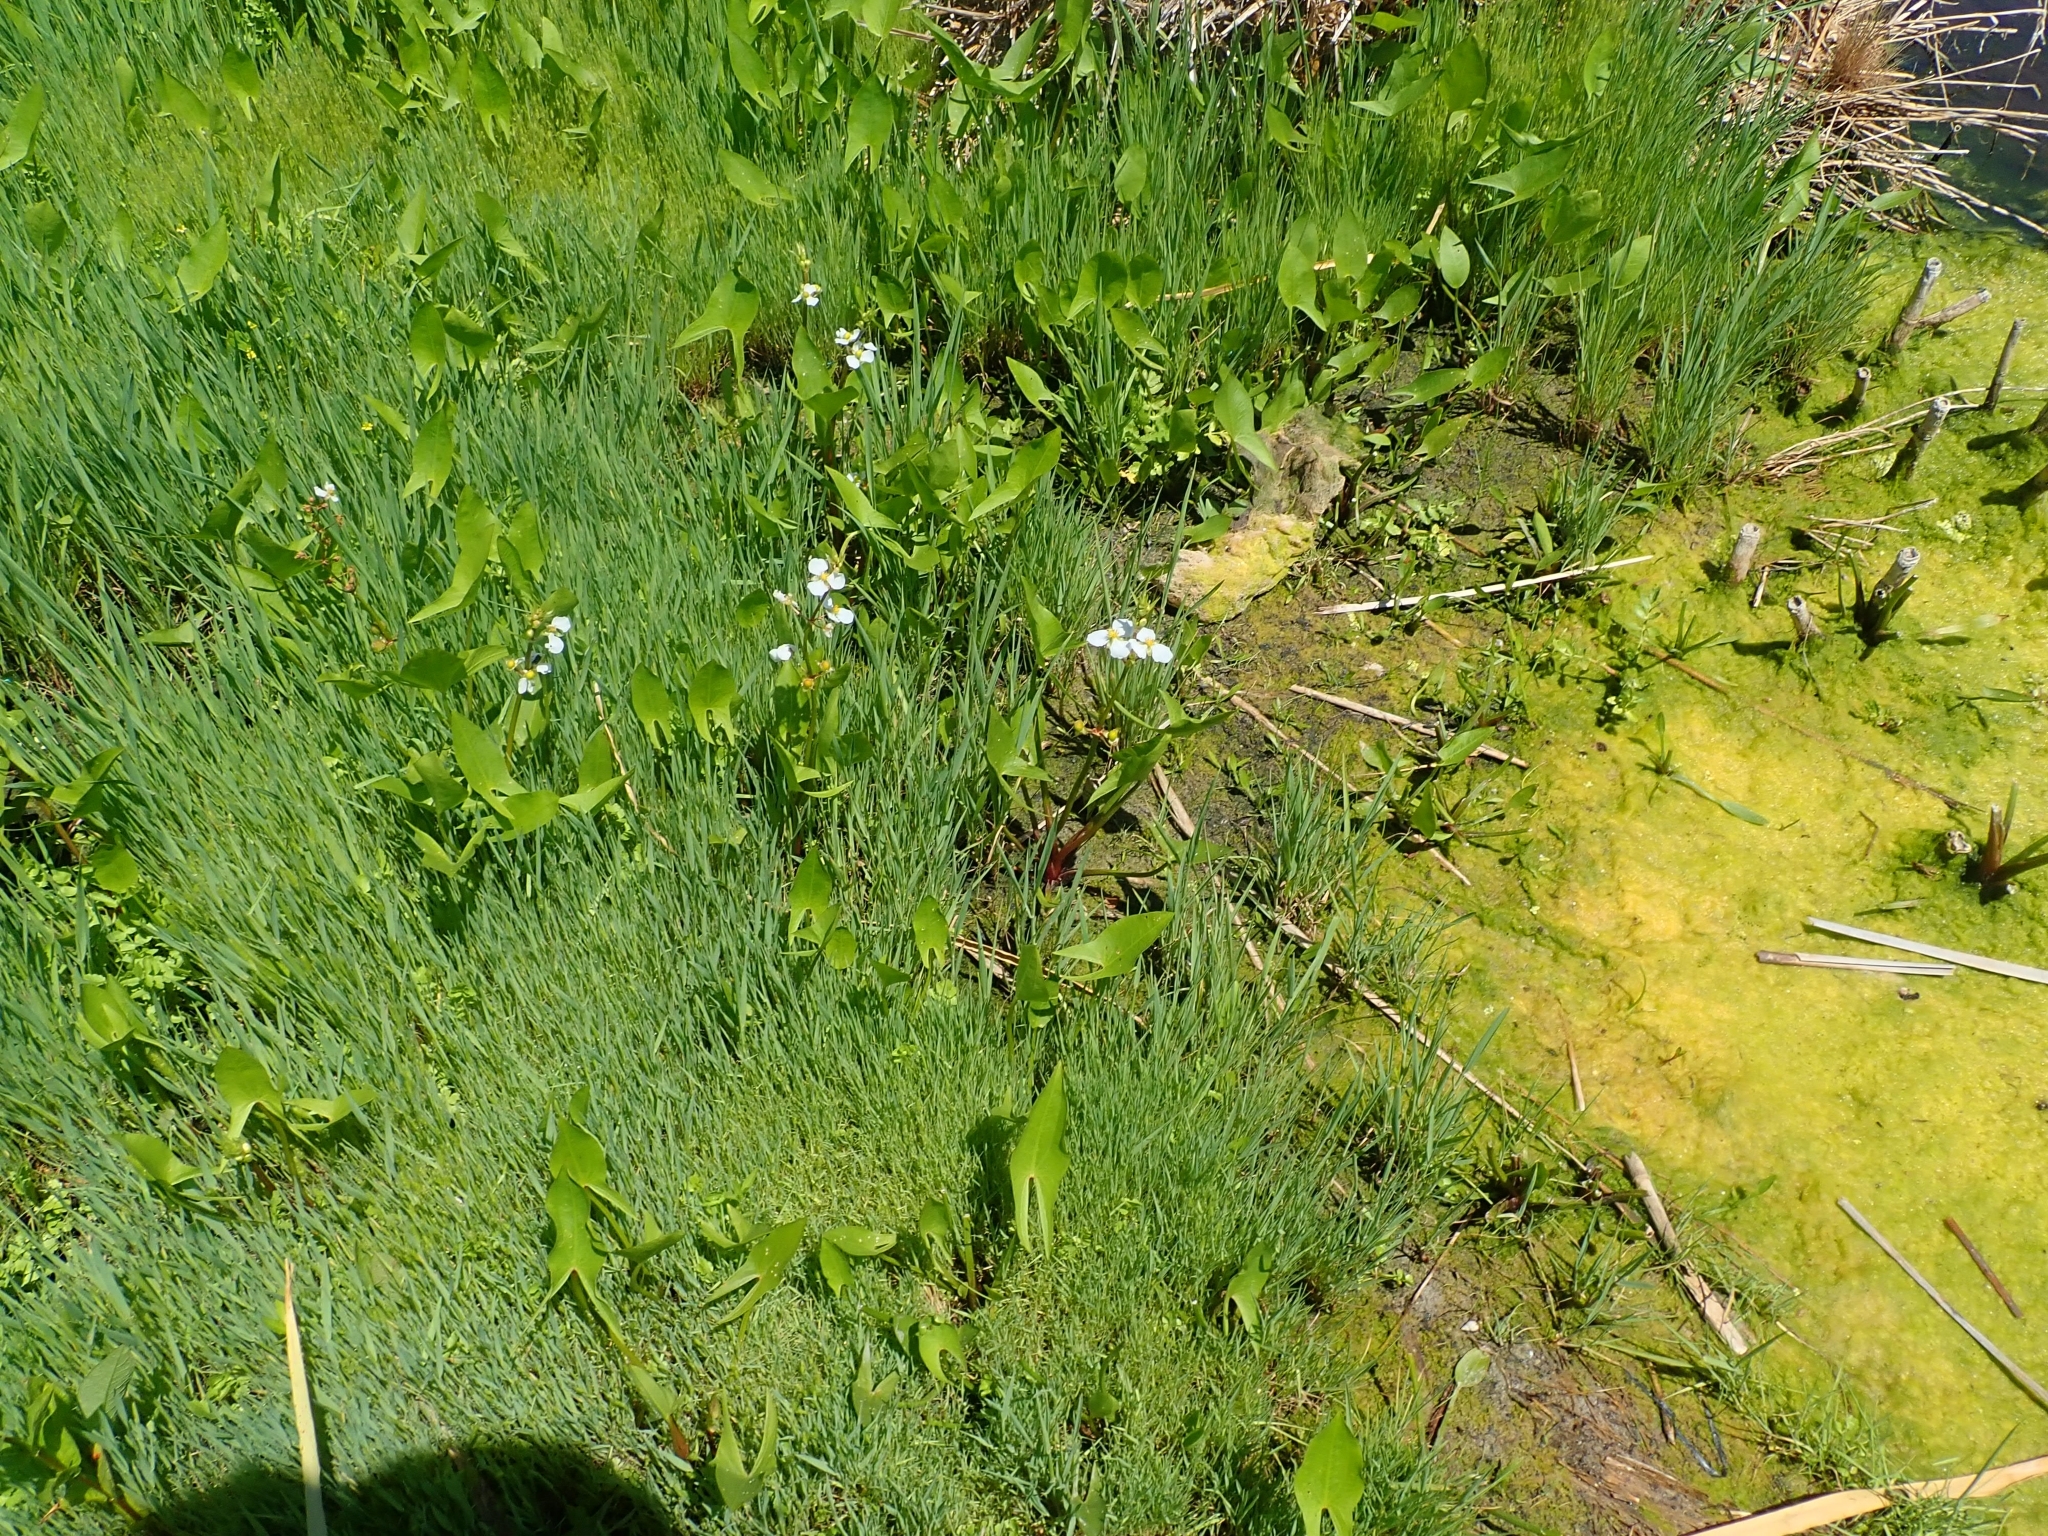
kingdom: Plantae
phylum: Tracheophyta
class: Liliopsida
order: Alismatales
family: Alismataceae
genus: Sagittaria
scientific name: Sagittaria cuneata
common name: Northern arrowhead
